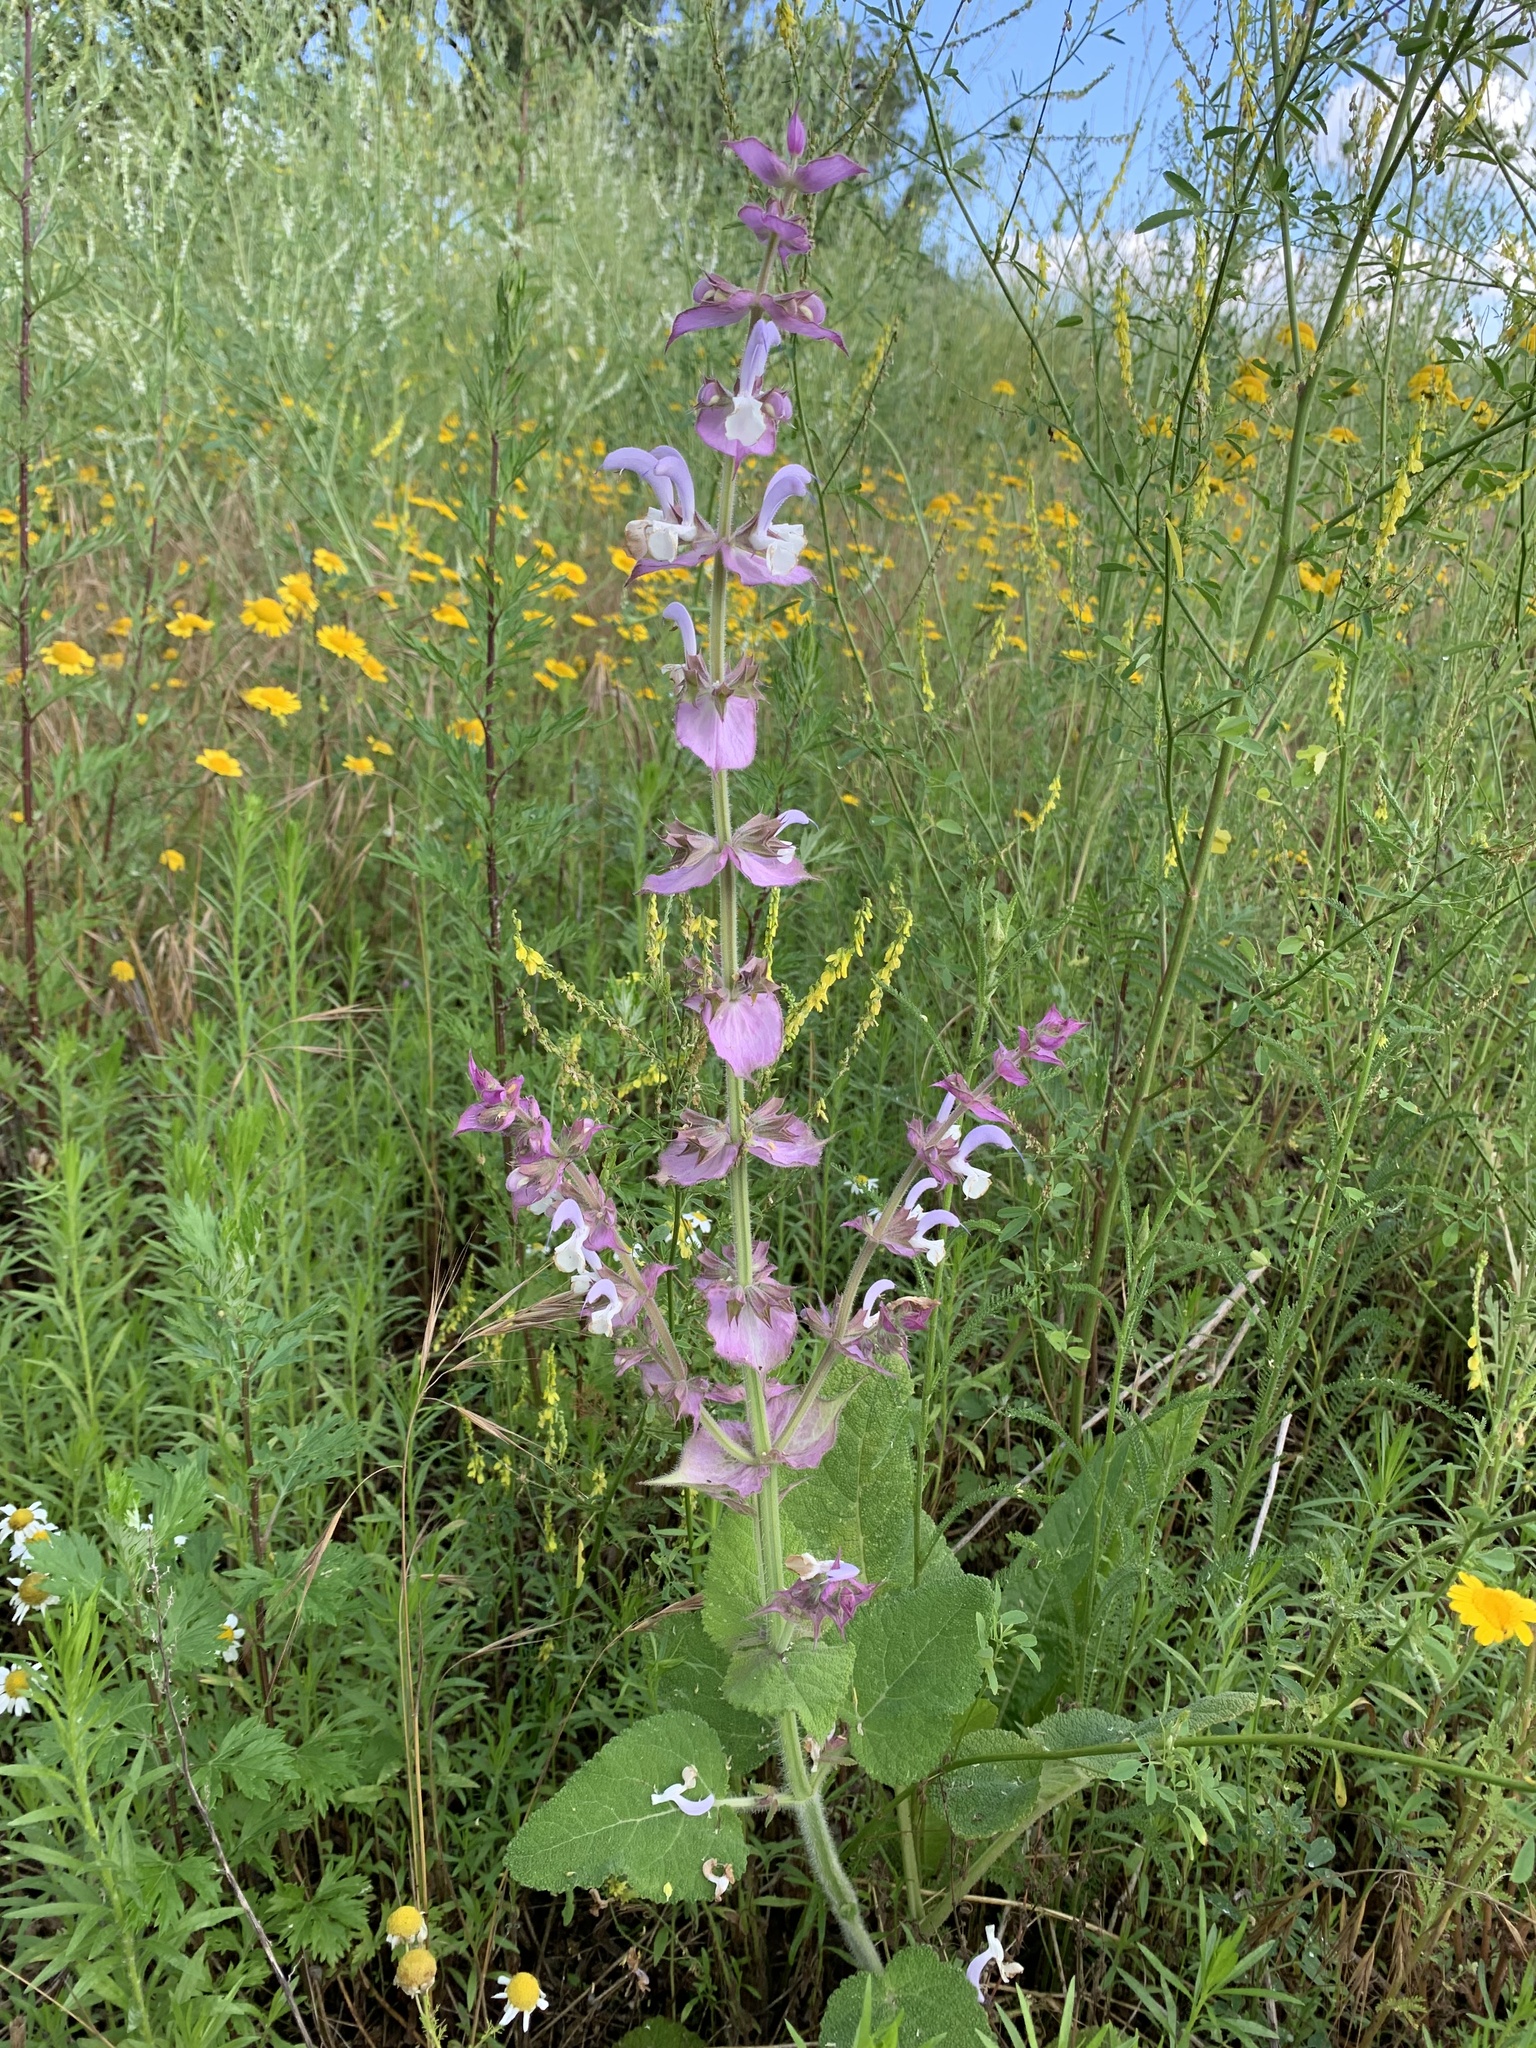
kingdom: Plantae
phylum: Tracheophyta
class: Magnoliopsida
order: Lamiales
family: Lamiaceae
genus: Salvia
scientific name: Salvia sclarea
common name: Clary
